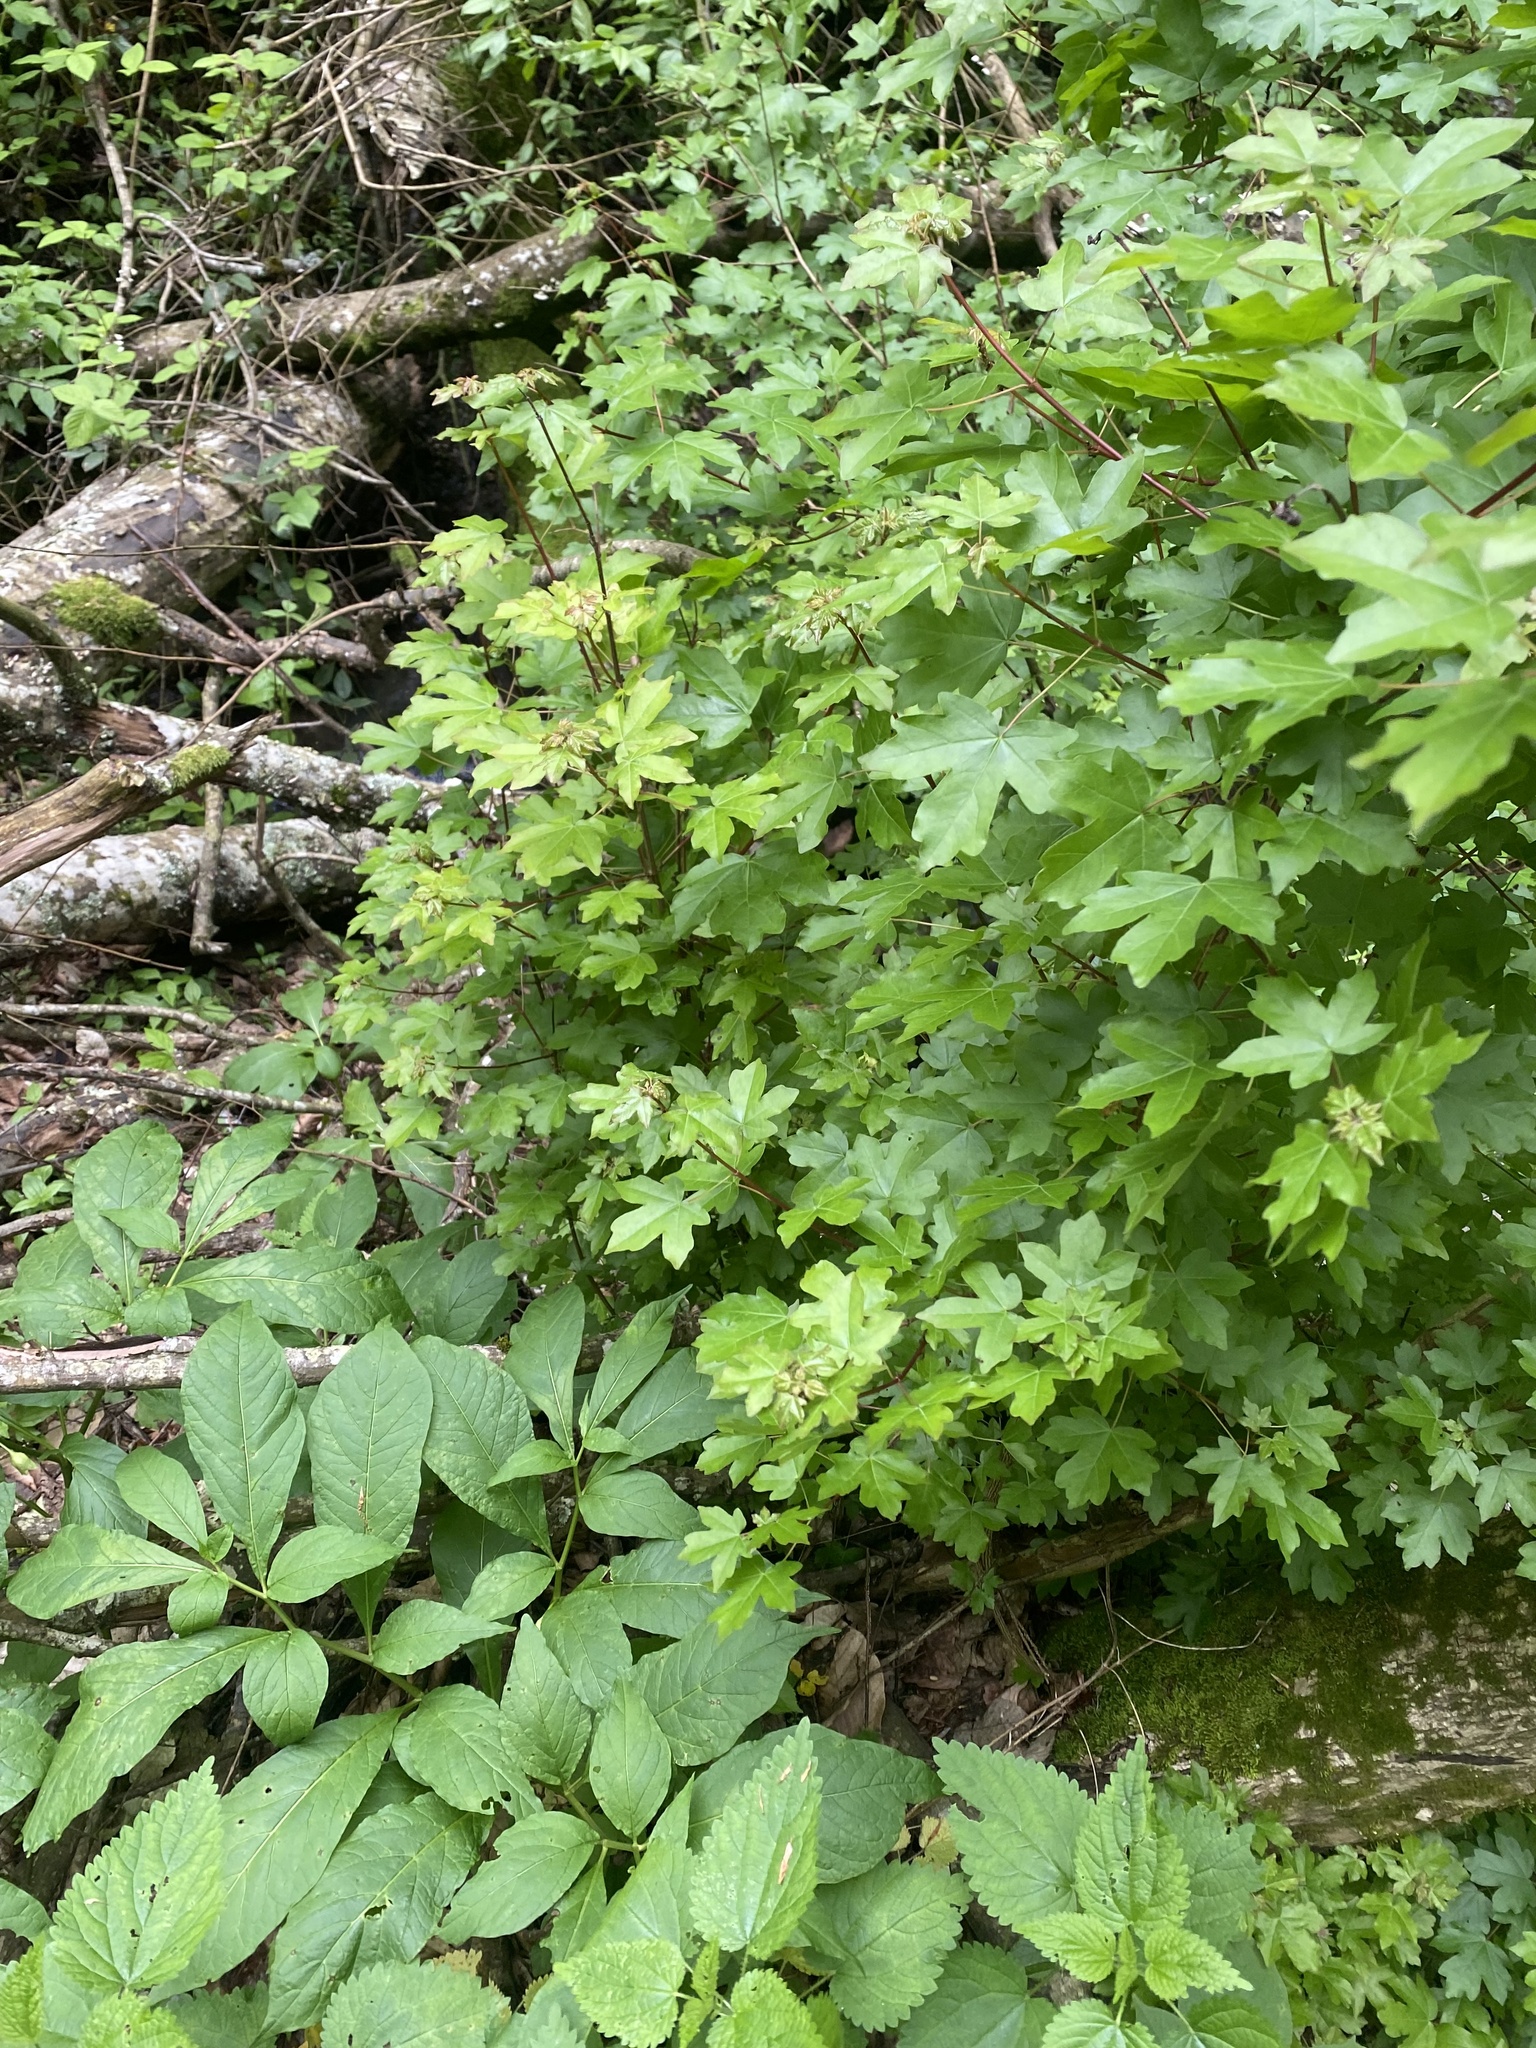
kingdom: Plantae
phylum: Tracheophyta
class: Magnoliopsida
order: Sapindales
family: Sapindaceae
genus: Acer
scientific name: Acer campestre
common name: Field maple
